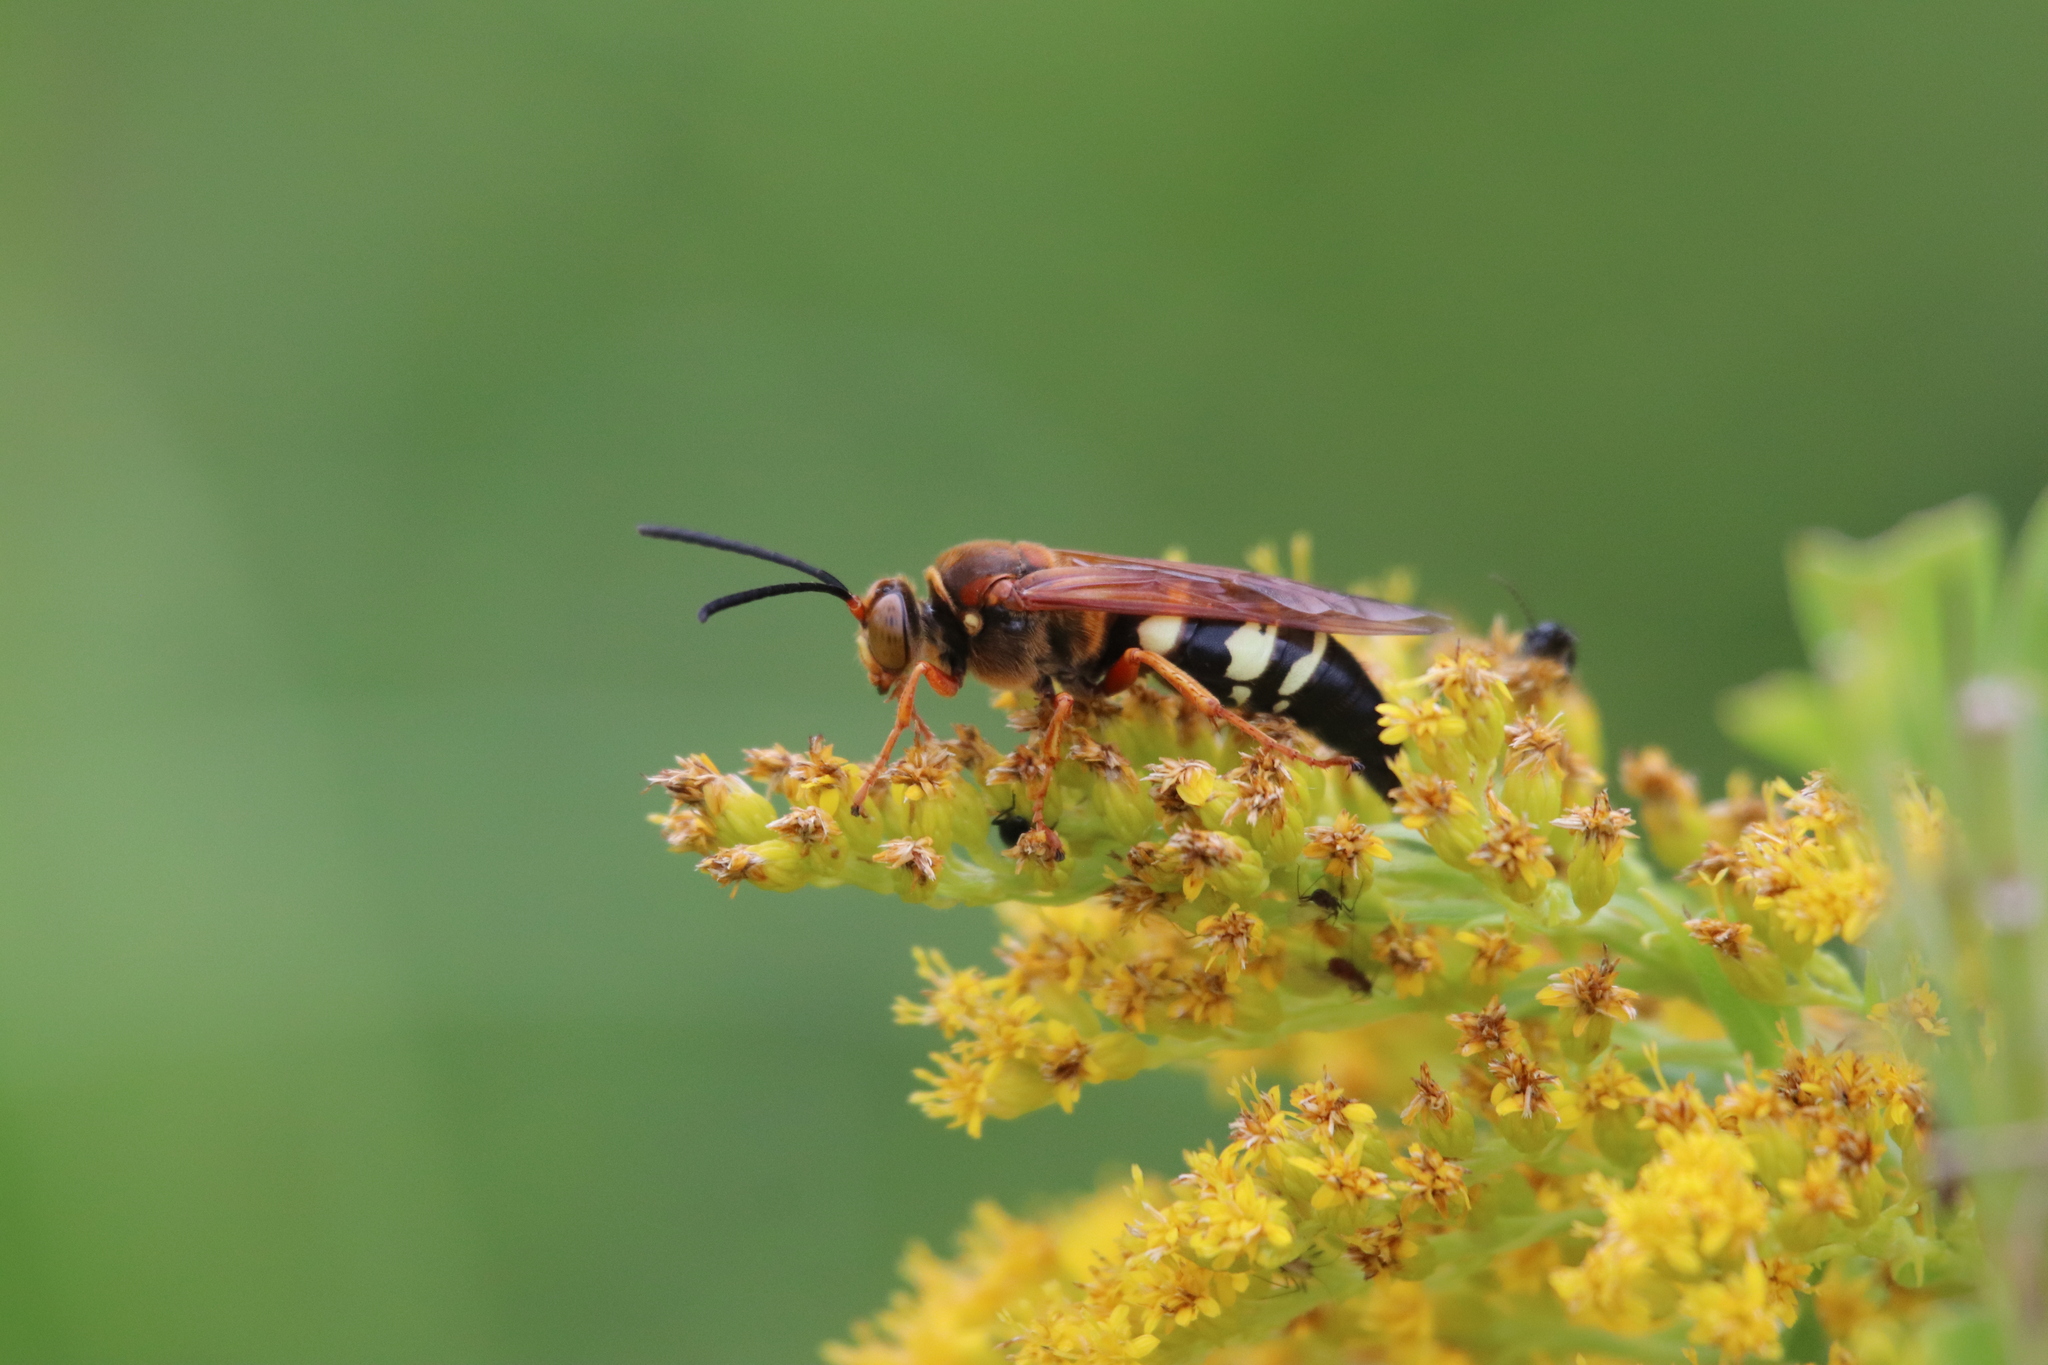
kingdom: Animalia
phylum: Arthropoda
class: Insecta
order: Hymenoptera
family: Crabronidae
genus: Sphecius
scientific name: Sphecius speciosus
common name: Cicada killer
